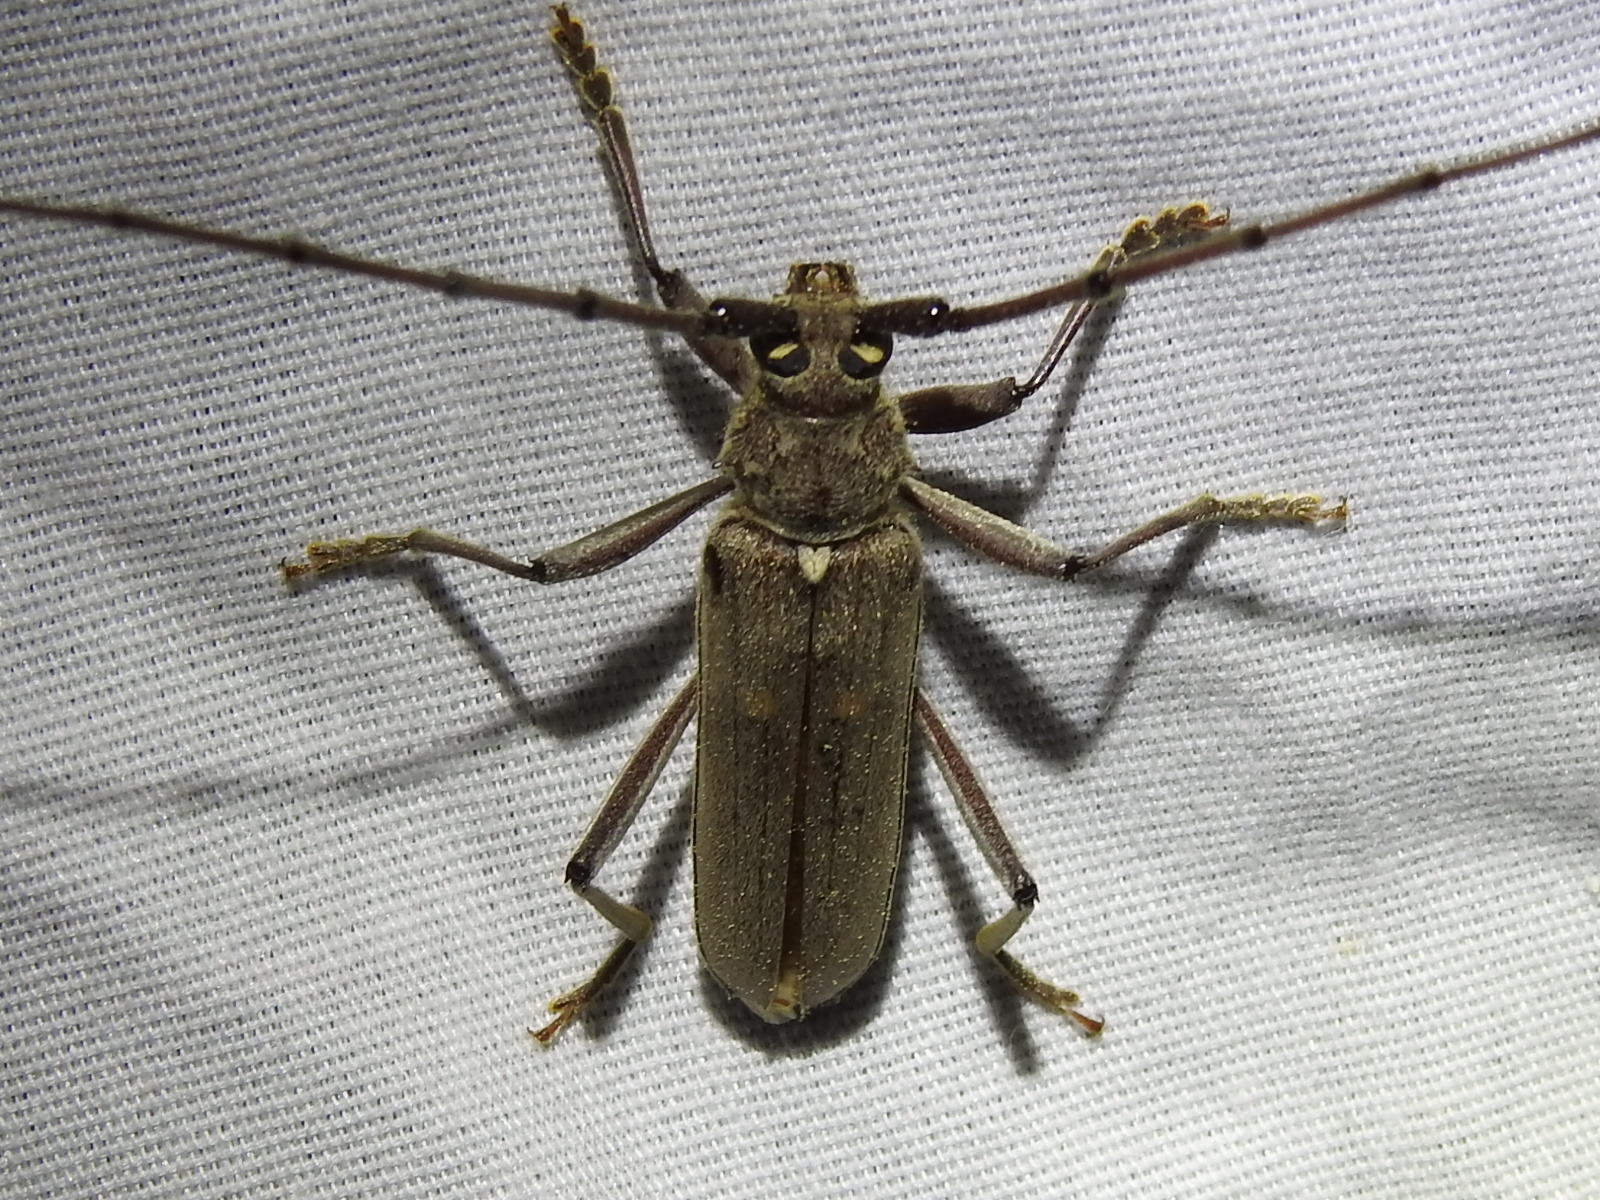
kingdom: Animalia
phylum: Arthropoda
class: Insecta
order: Coleoptera
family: Cerambycidae
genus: Knulliana
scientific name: Knulliana cincta
